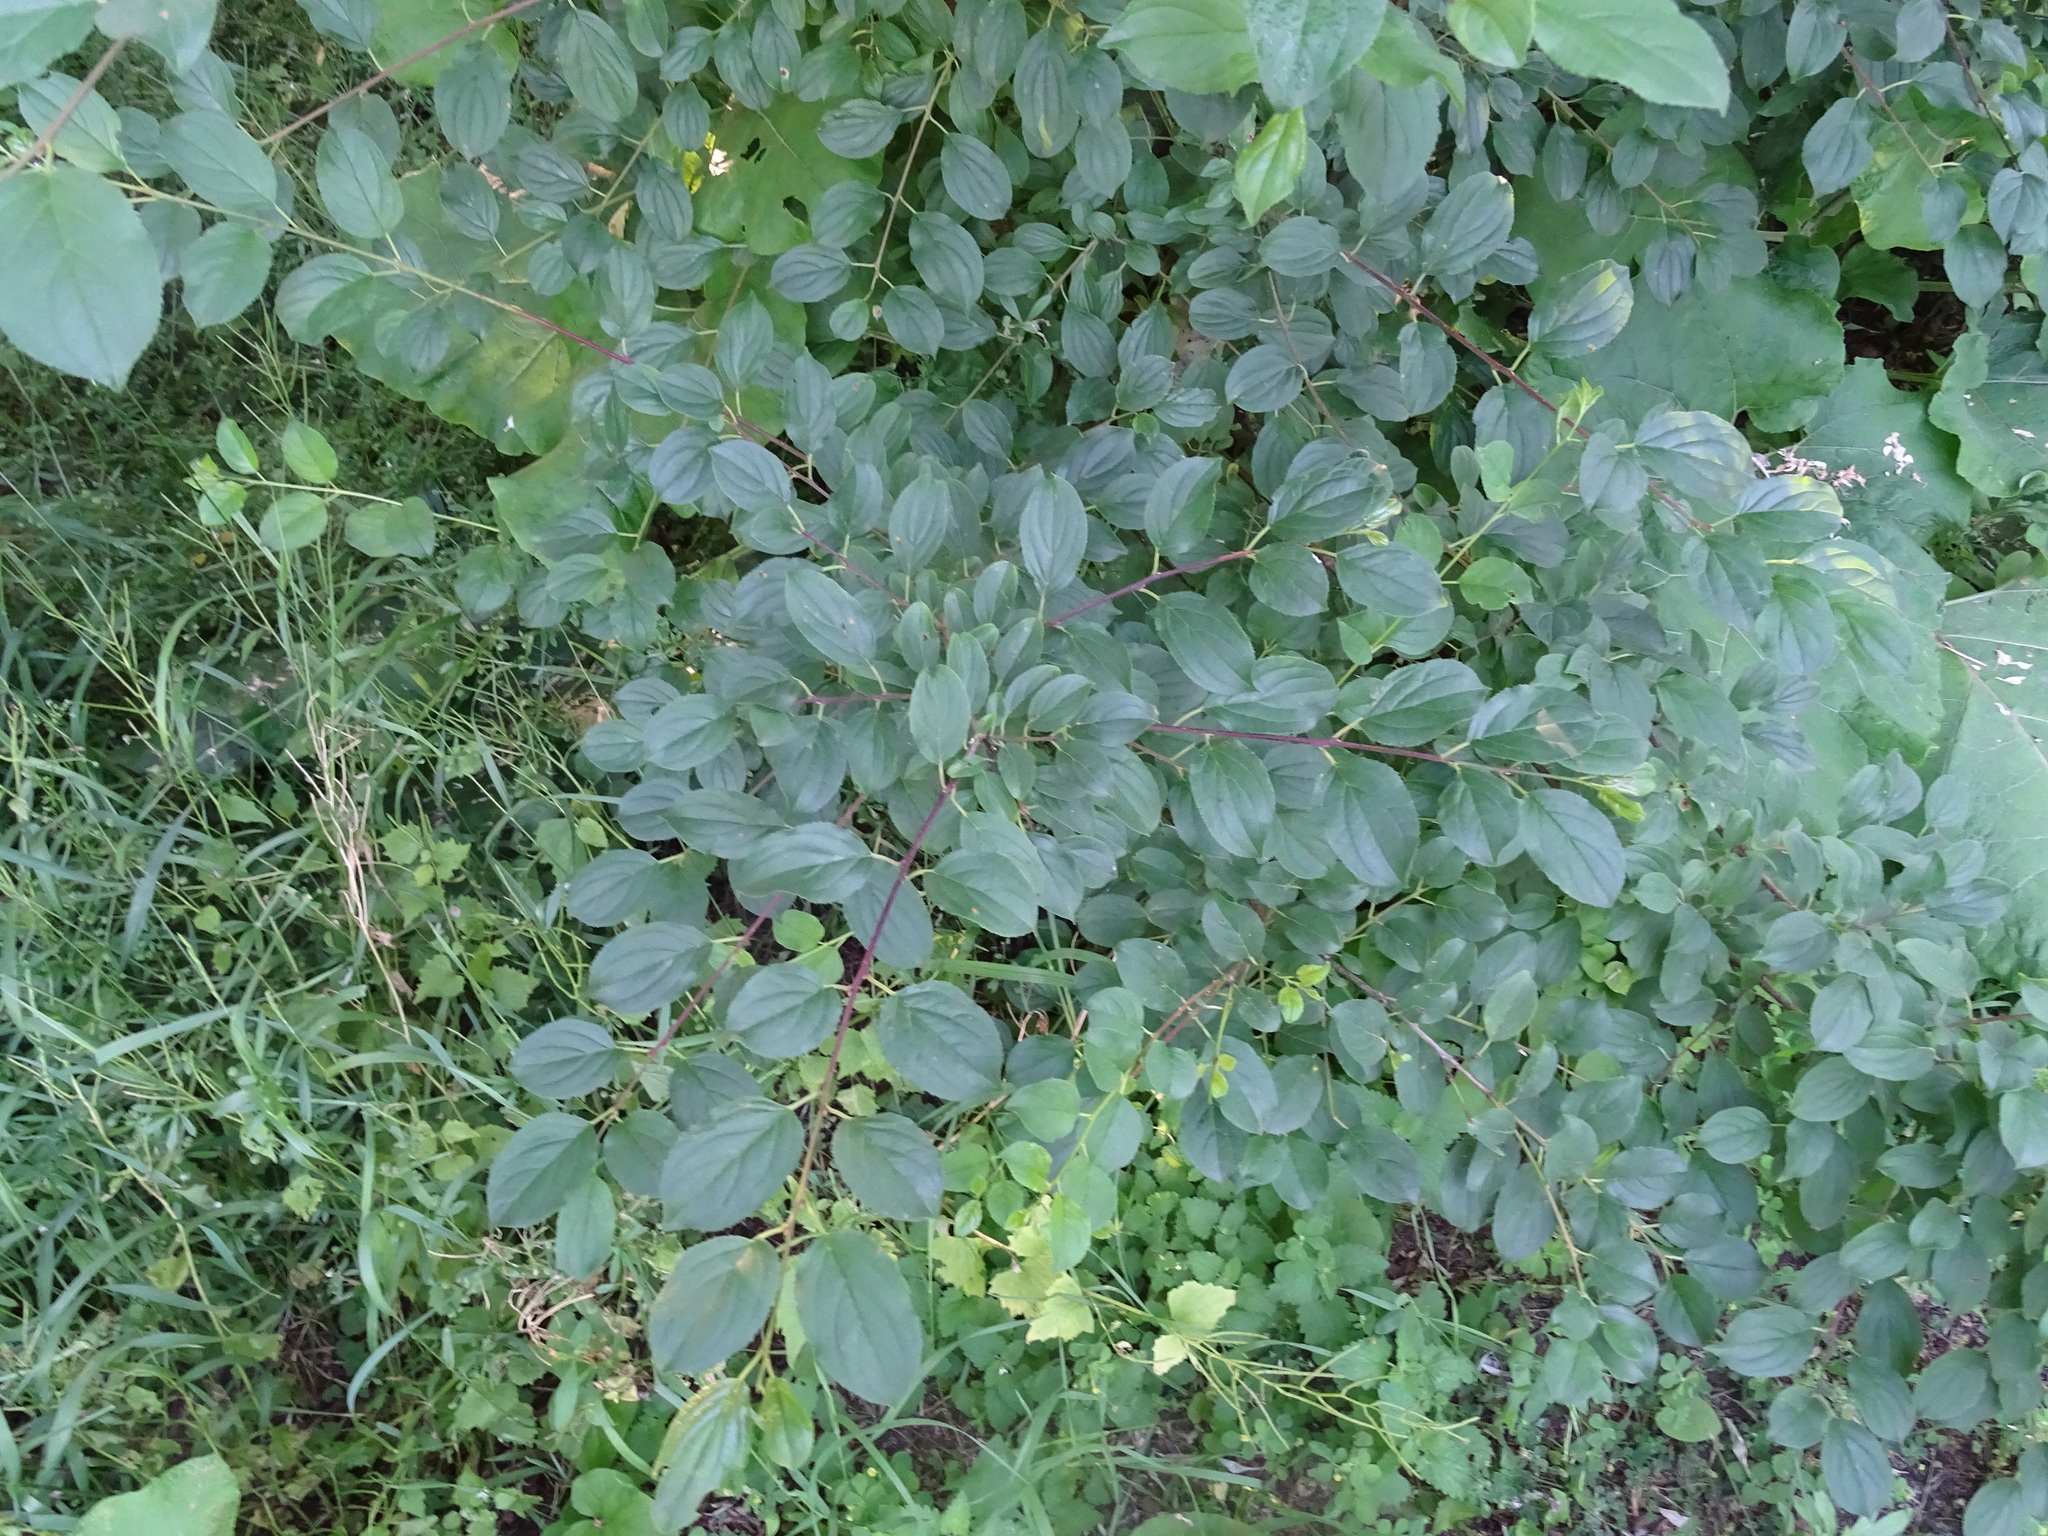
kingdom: Plantae
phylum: Tracheophyta
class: Magnoliopsida
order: Rosales
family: Rhamnaceae
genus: Rhamnus
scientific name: Rhamnus cathartica
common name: Common buckthorn
